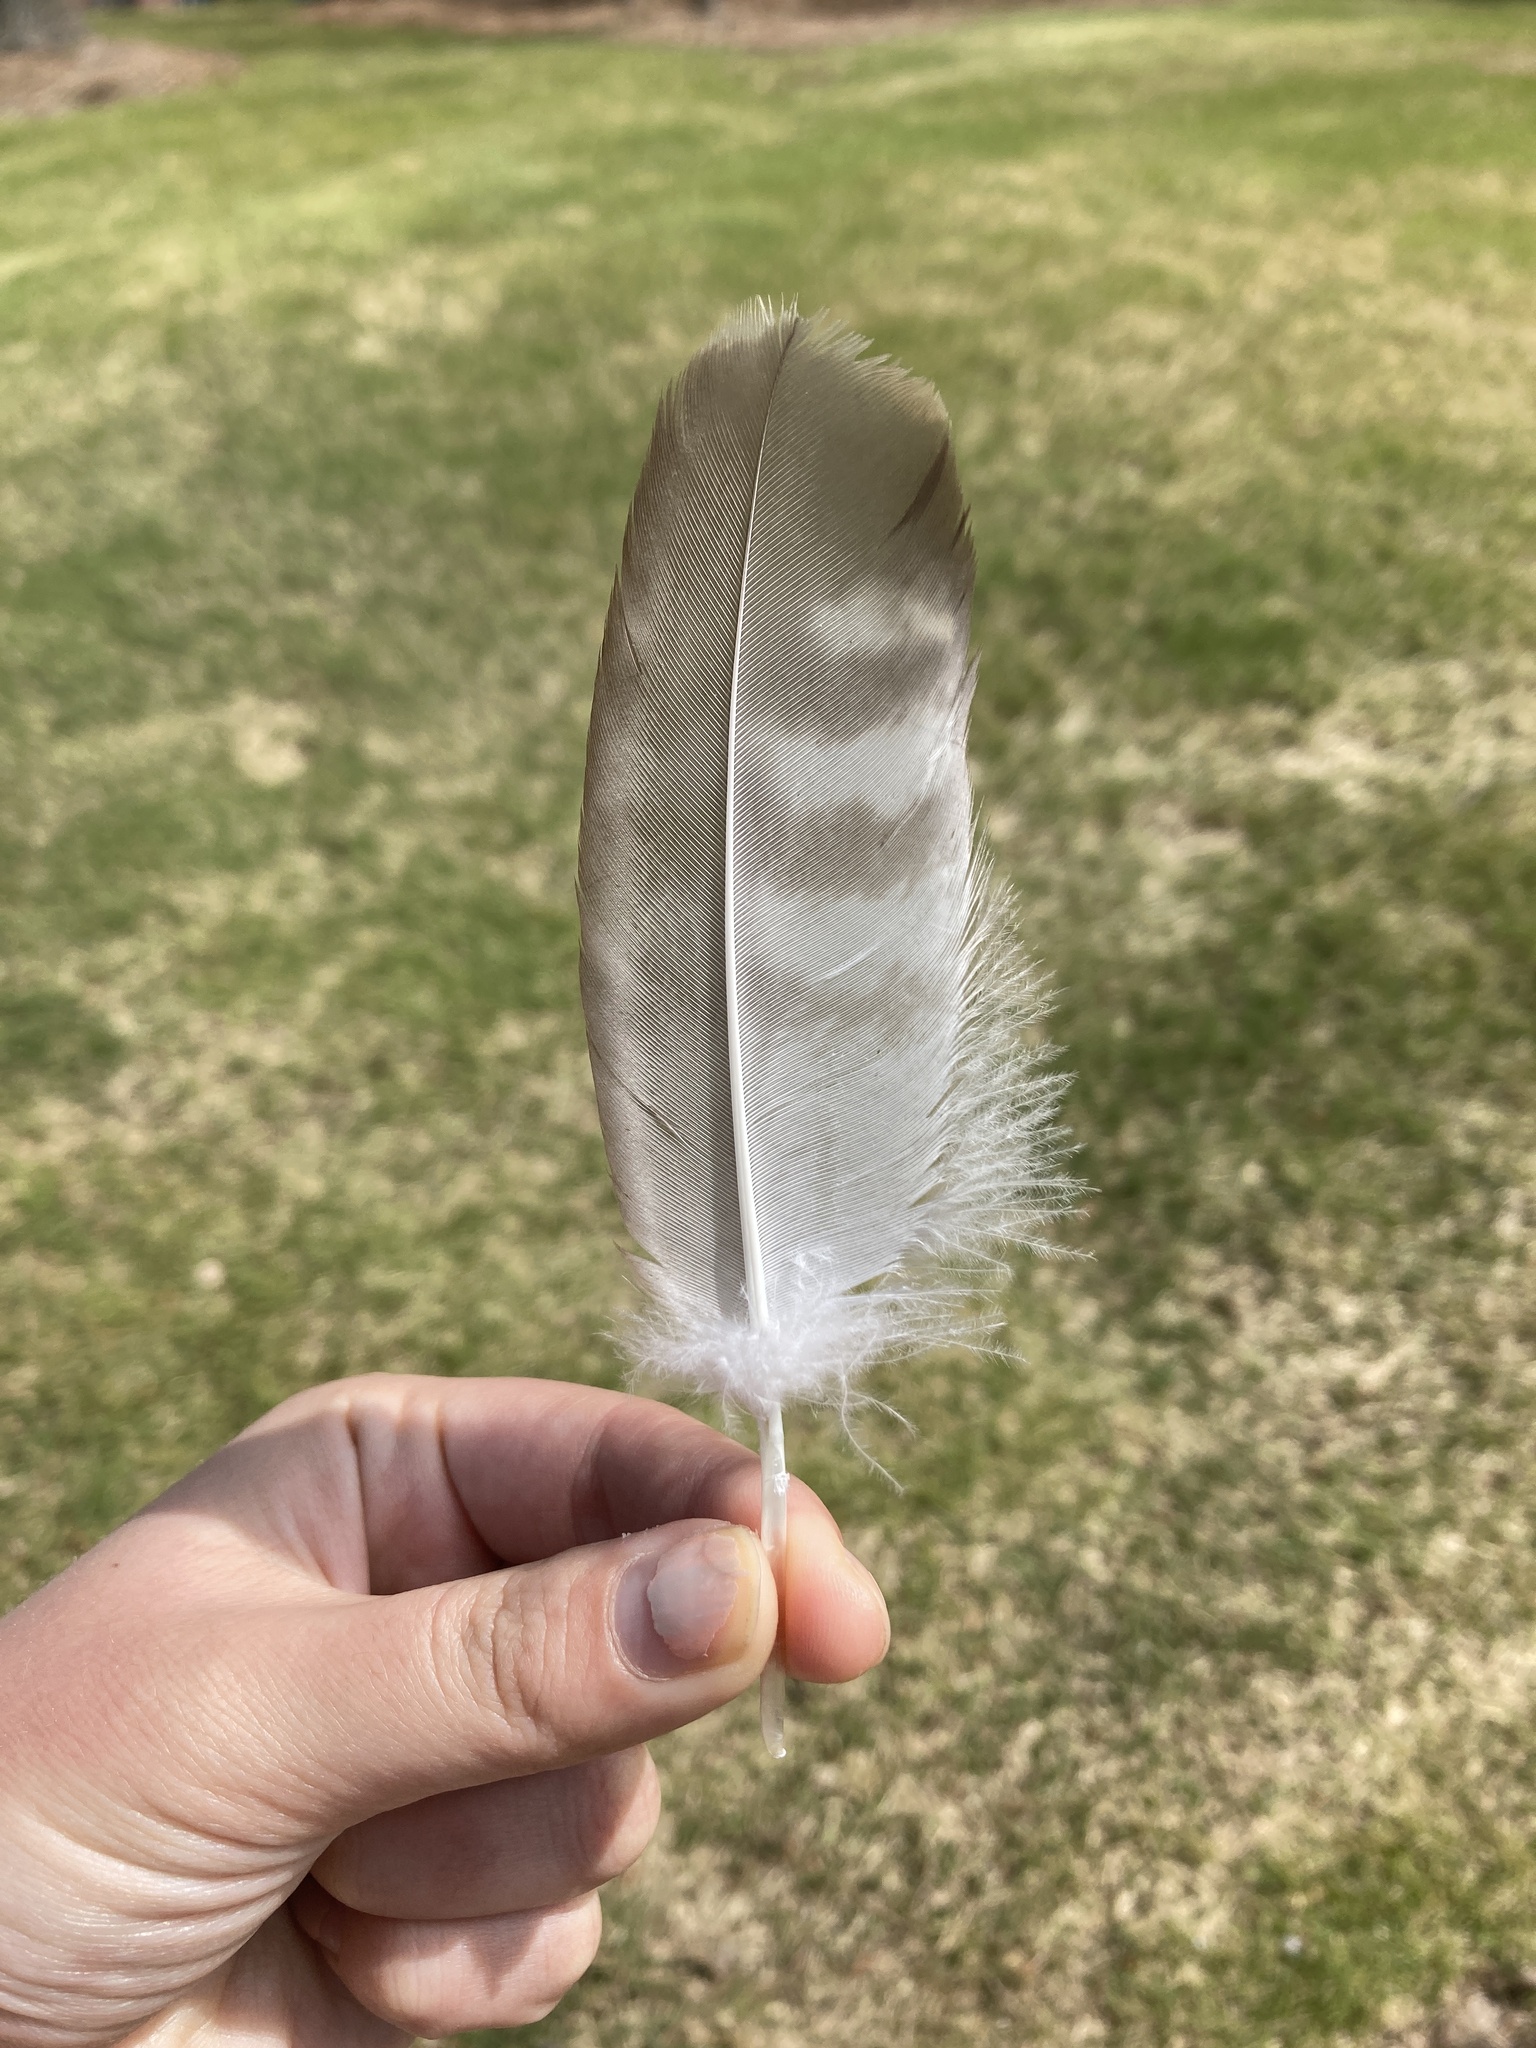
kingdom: Animalia
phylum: Chordata
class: Aves
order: Accipitriformes
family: Accipitridae
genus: Buteo
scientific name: Buteo jamaicensis
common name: Red-tailed hawk
